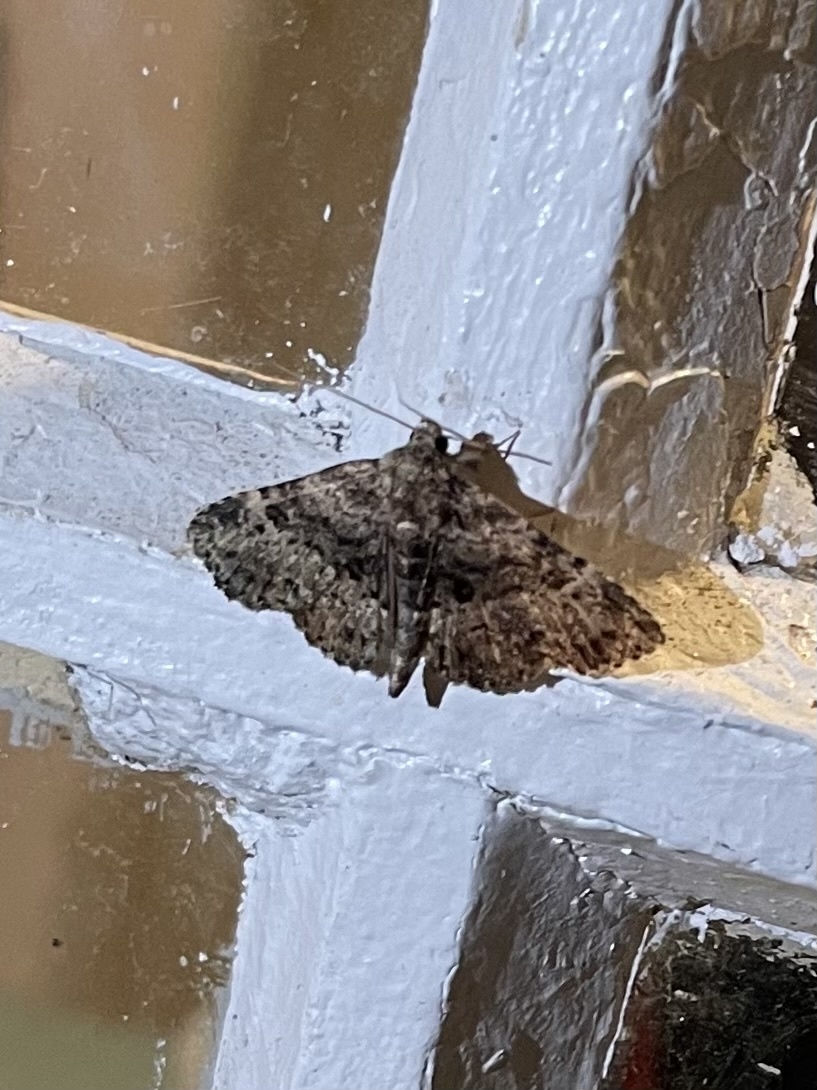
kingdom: Animalia
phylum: Arthropoda
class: Insecta
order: Lepidoptera
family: Erebidae
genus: Metalectra
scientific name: Metalectra discalis
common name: Common fungus moth
